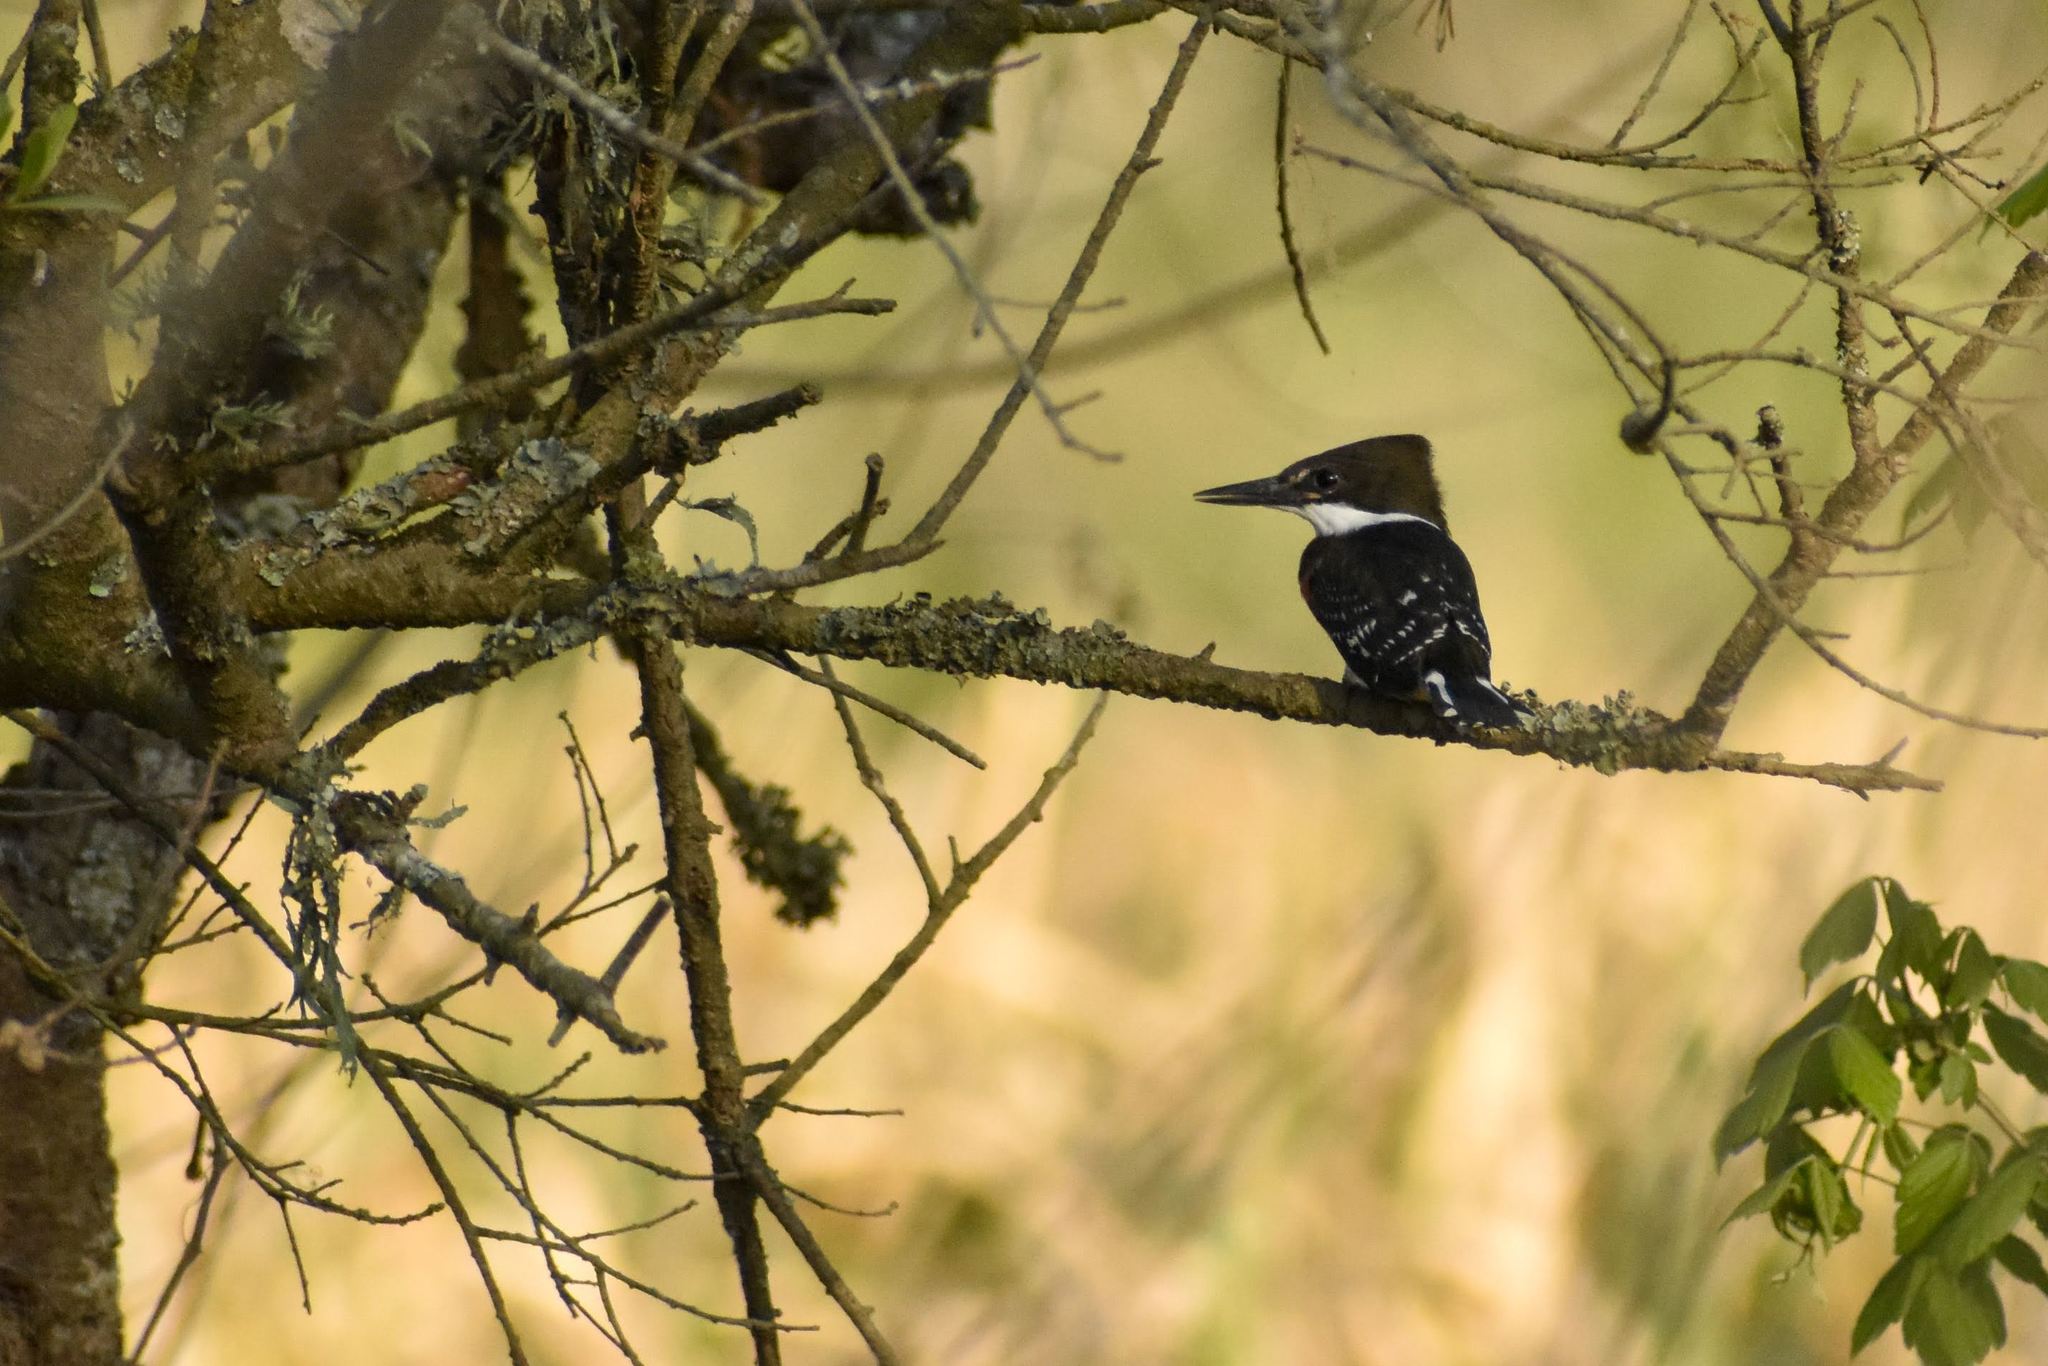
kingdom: Animalia
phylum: Chordata
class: Aves
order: Coraciiformes
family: Alcedinidae
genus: Chloroceryle
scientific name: Chloroceryle americana
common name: Green kingfisher
